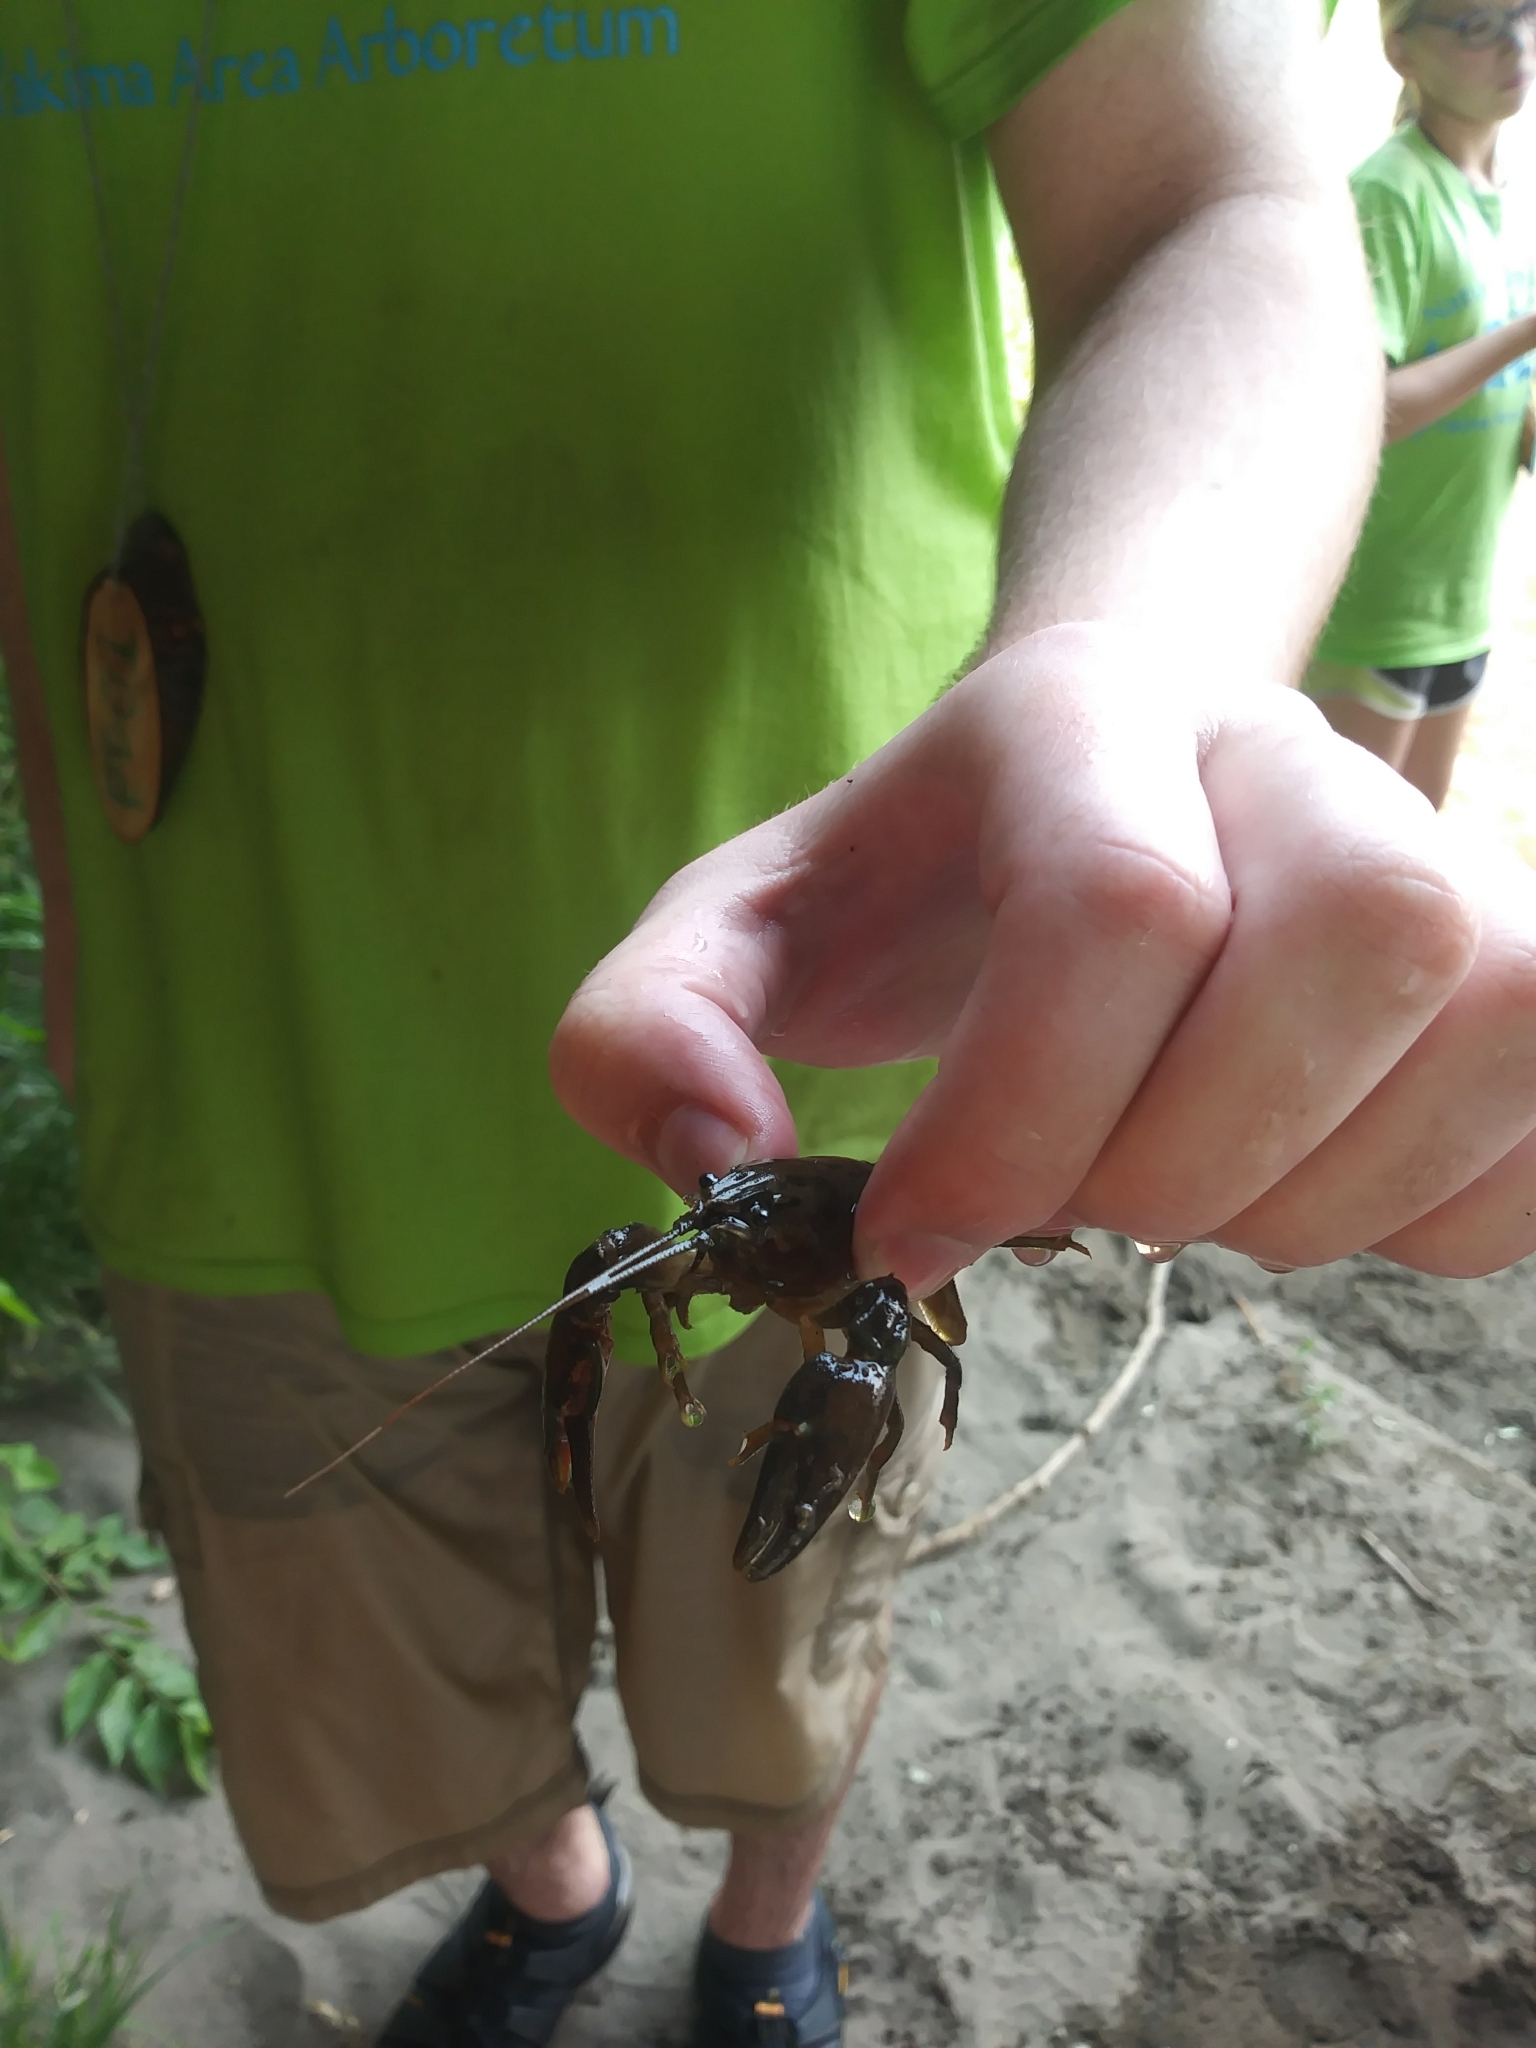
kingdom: Animalia
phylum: Arthropoda
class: Malacostraca
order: Decapoda
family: Astacidae
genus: Pacifastacus
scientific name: Pacifastacus leniusculus
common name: Signal crayfish
